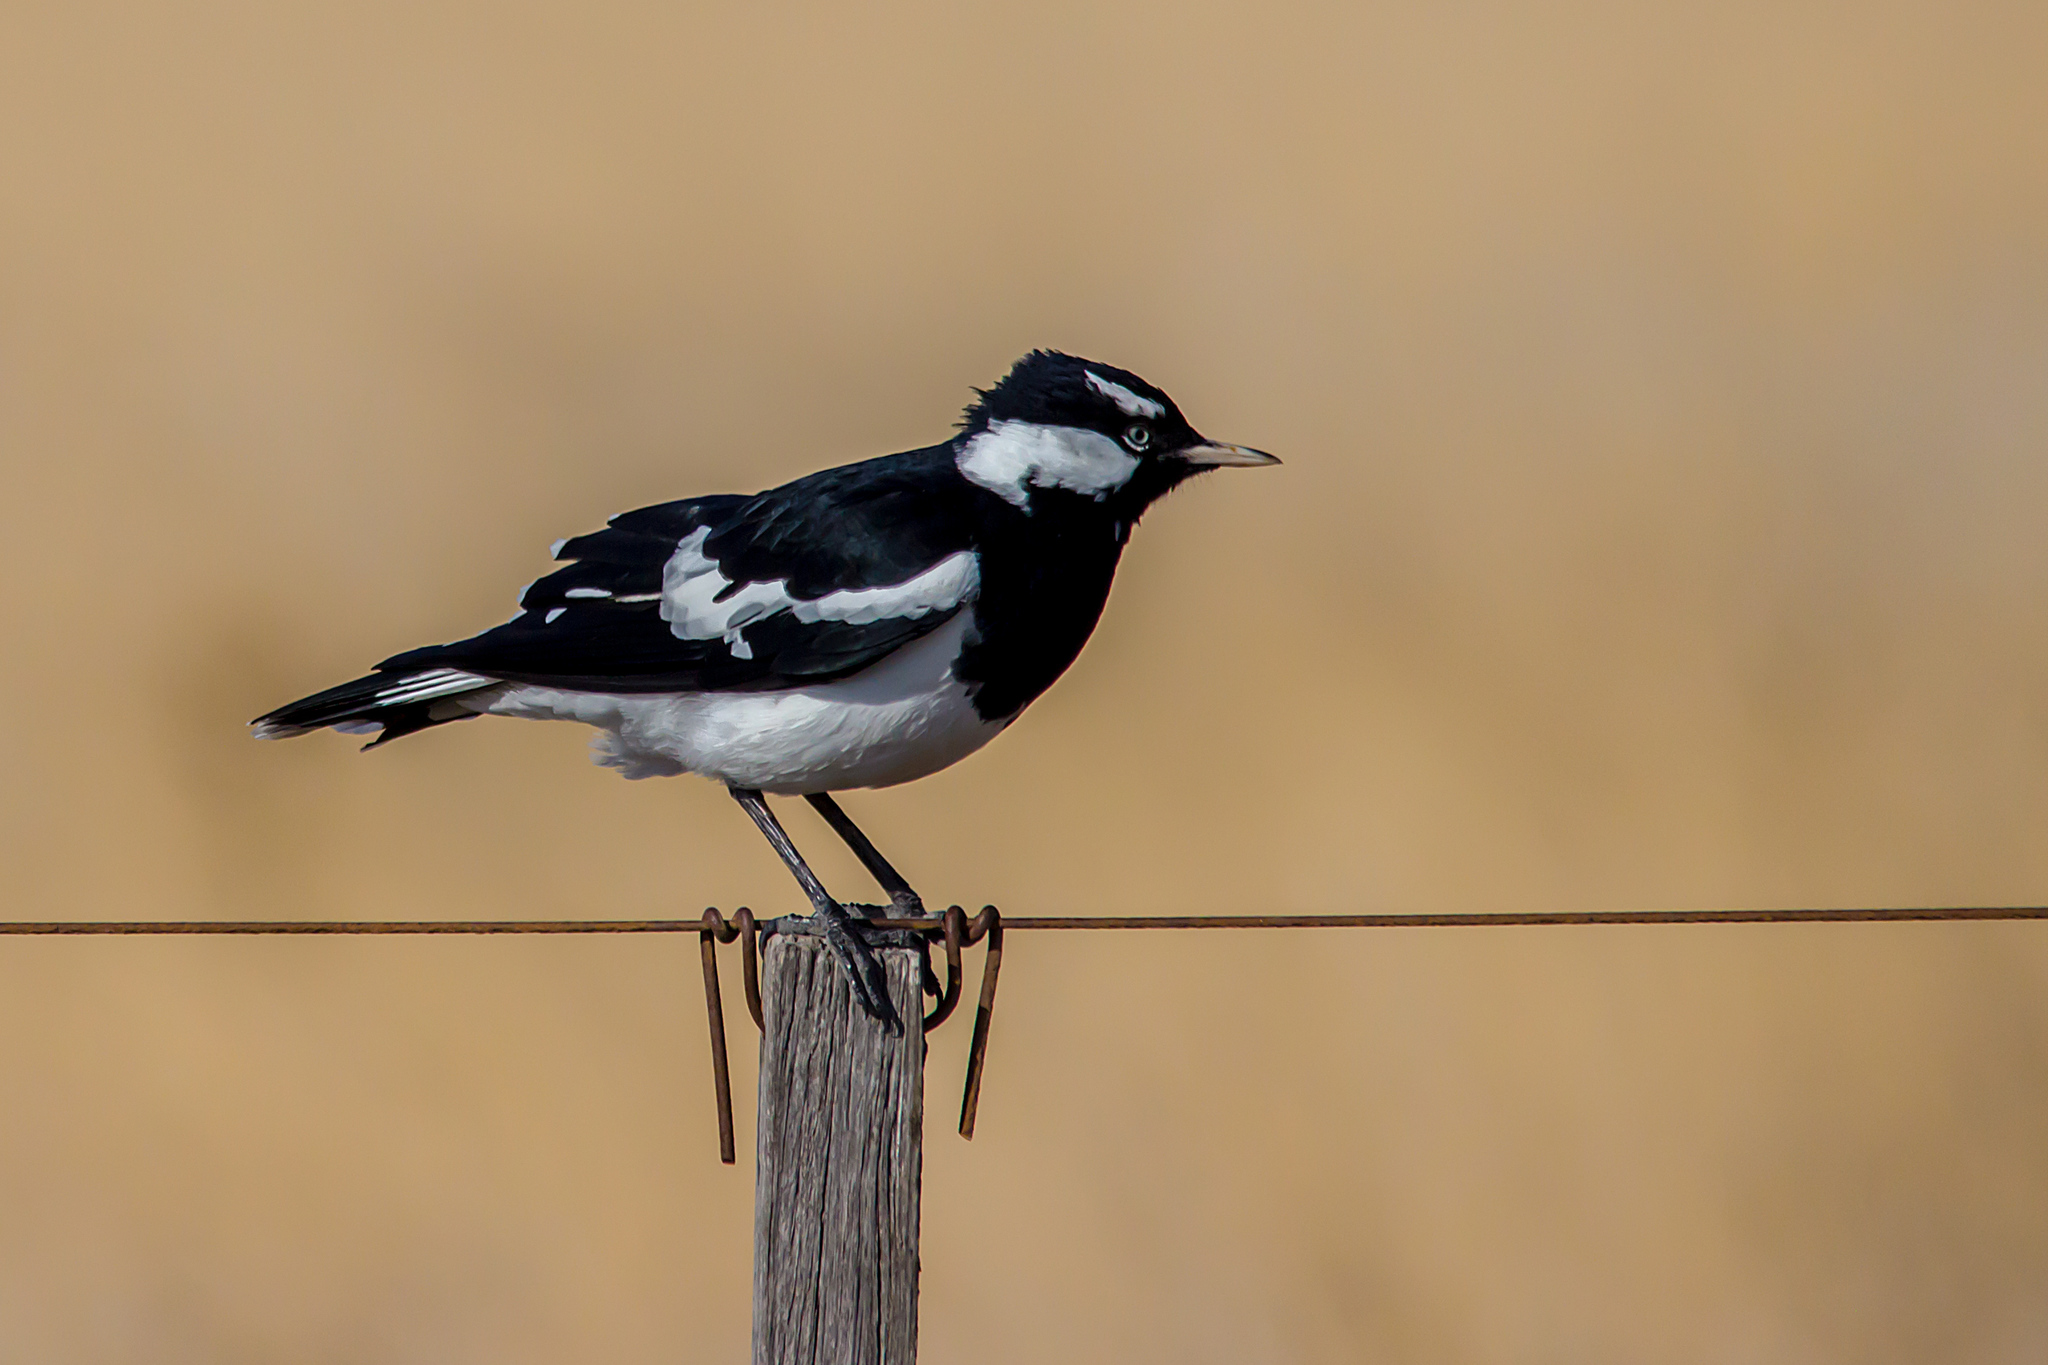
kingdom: Animalia
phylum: Chordata
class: Aves
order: Passeriformes
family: Monarchidae
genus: Grallina
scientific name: Grallina cyanoleuca
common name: Magpie-lark
